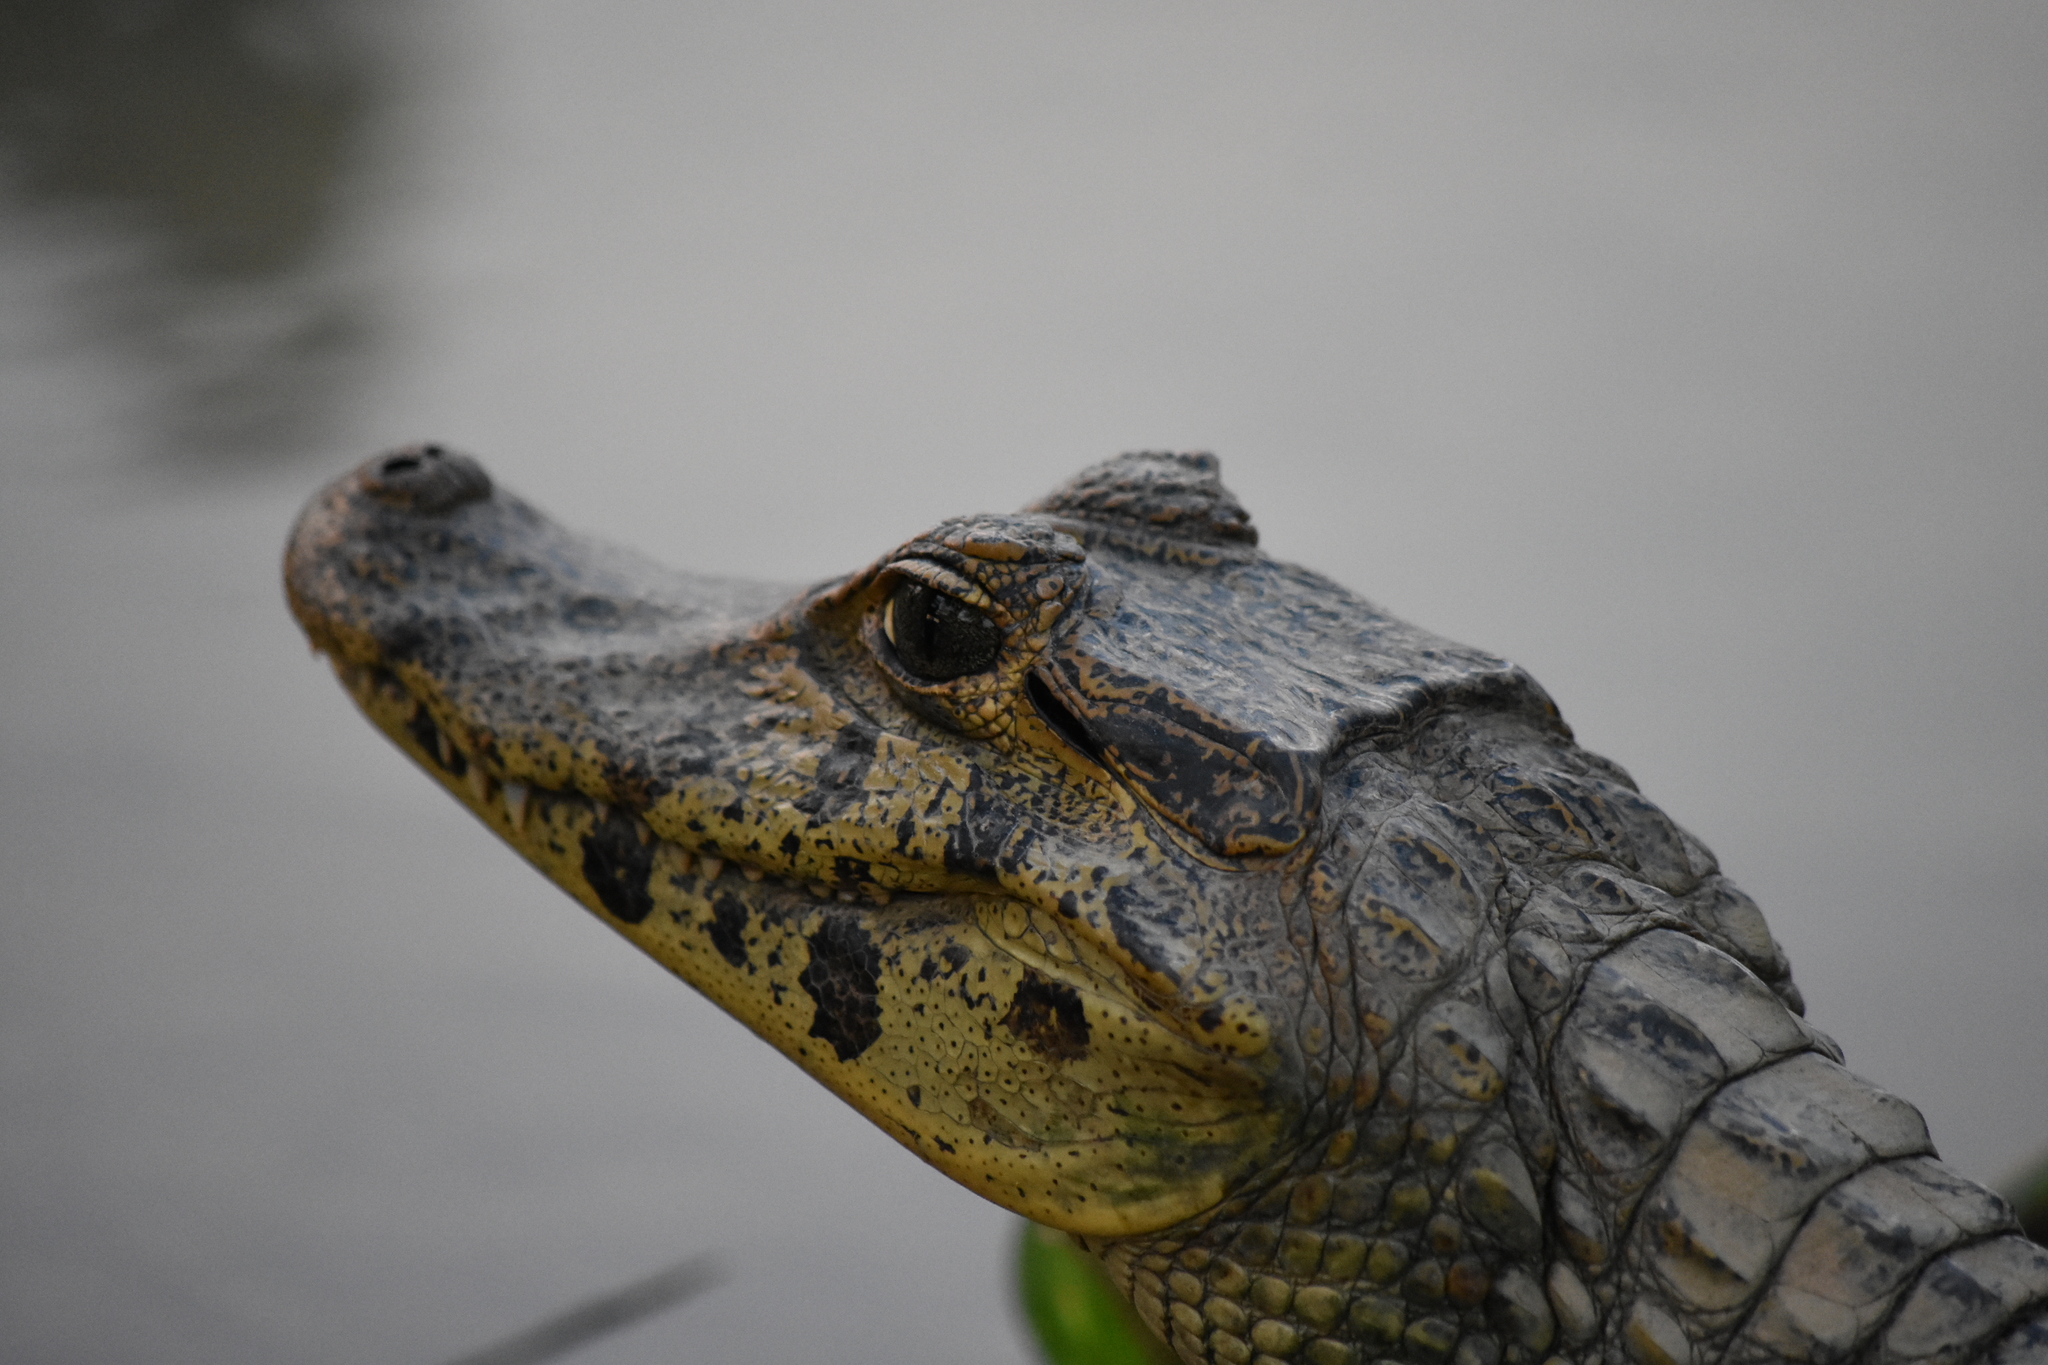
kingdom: Animalia
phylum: Chordata
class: Crocodylia
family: Alligatoridae
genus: Caiman
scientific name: Caiman yacare
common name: Yacare caiman
